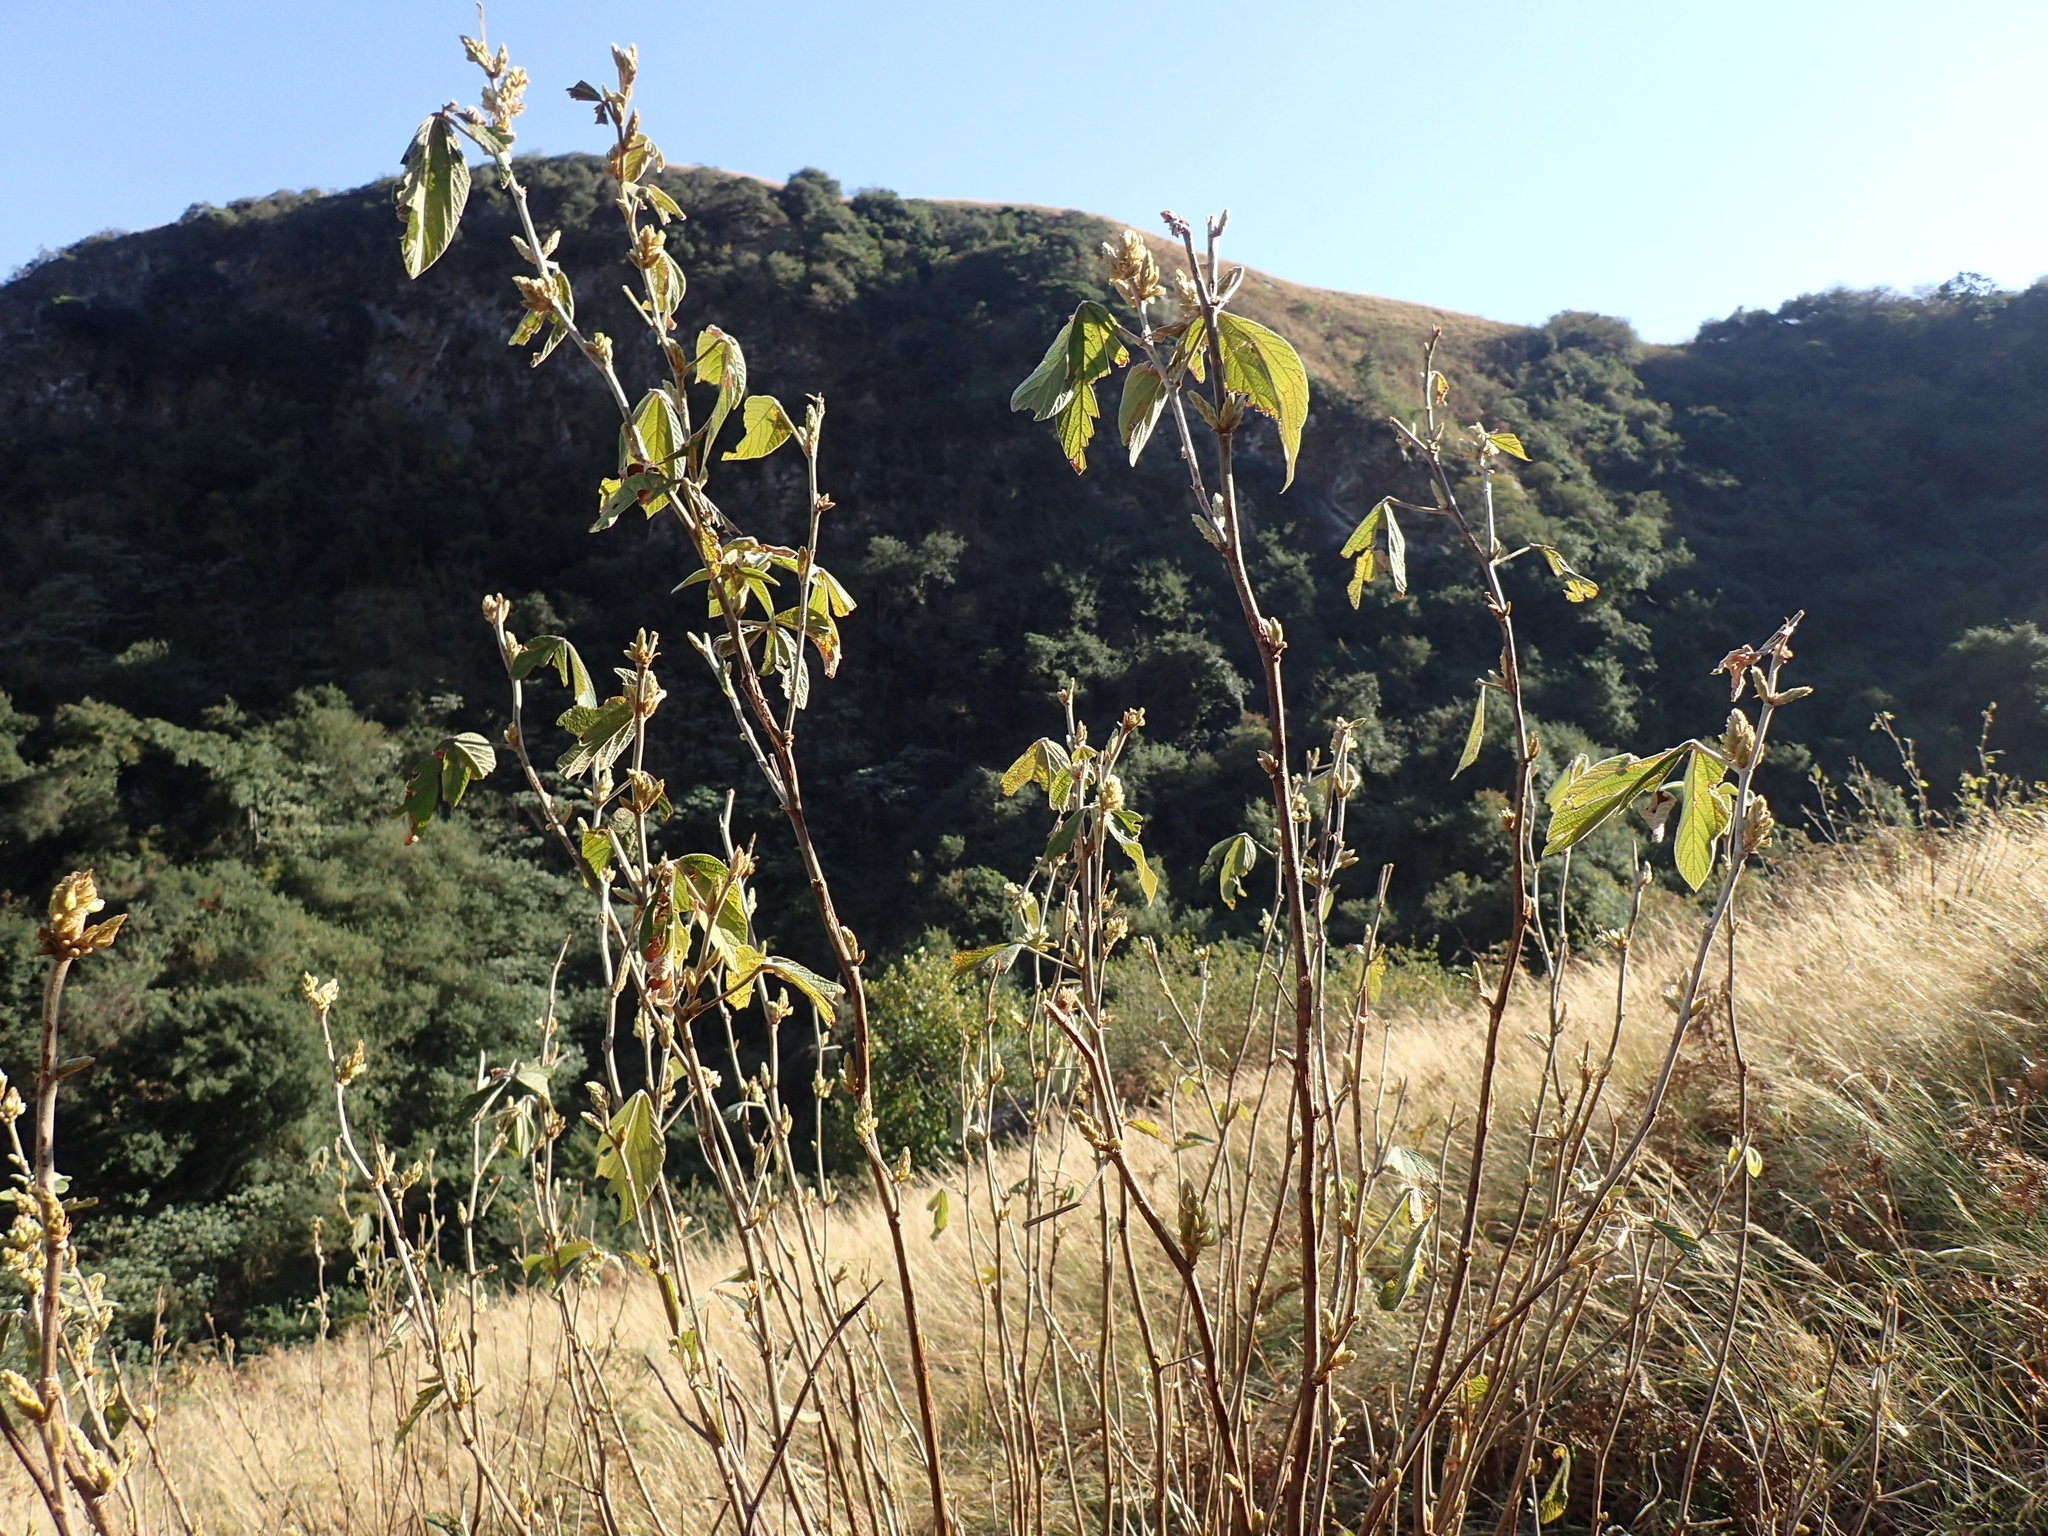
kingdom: Plantae
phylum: Tracheophyta
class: Magnoliopsida
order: Fabales
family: Fabaceae
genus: Flemingia
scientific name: Flemingia grahamiana
